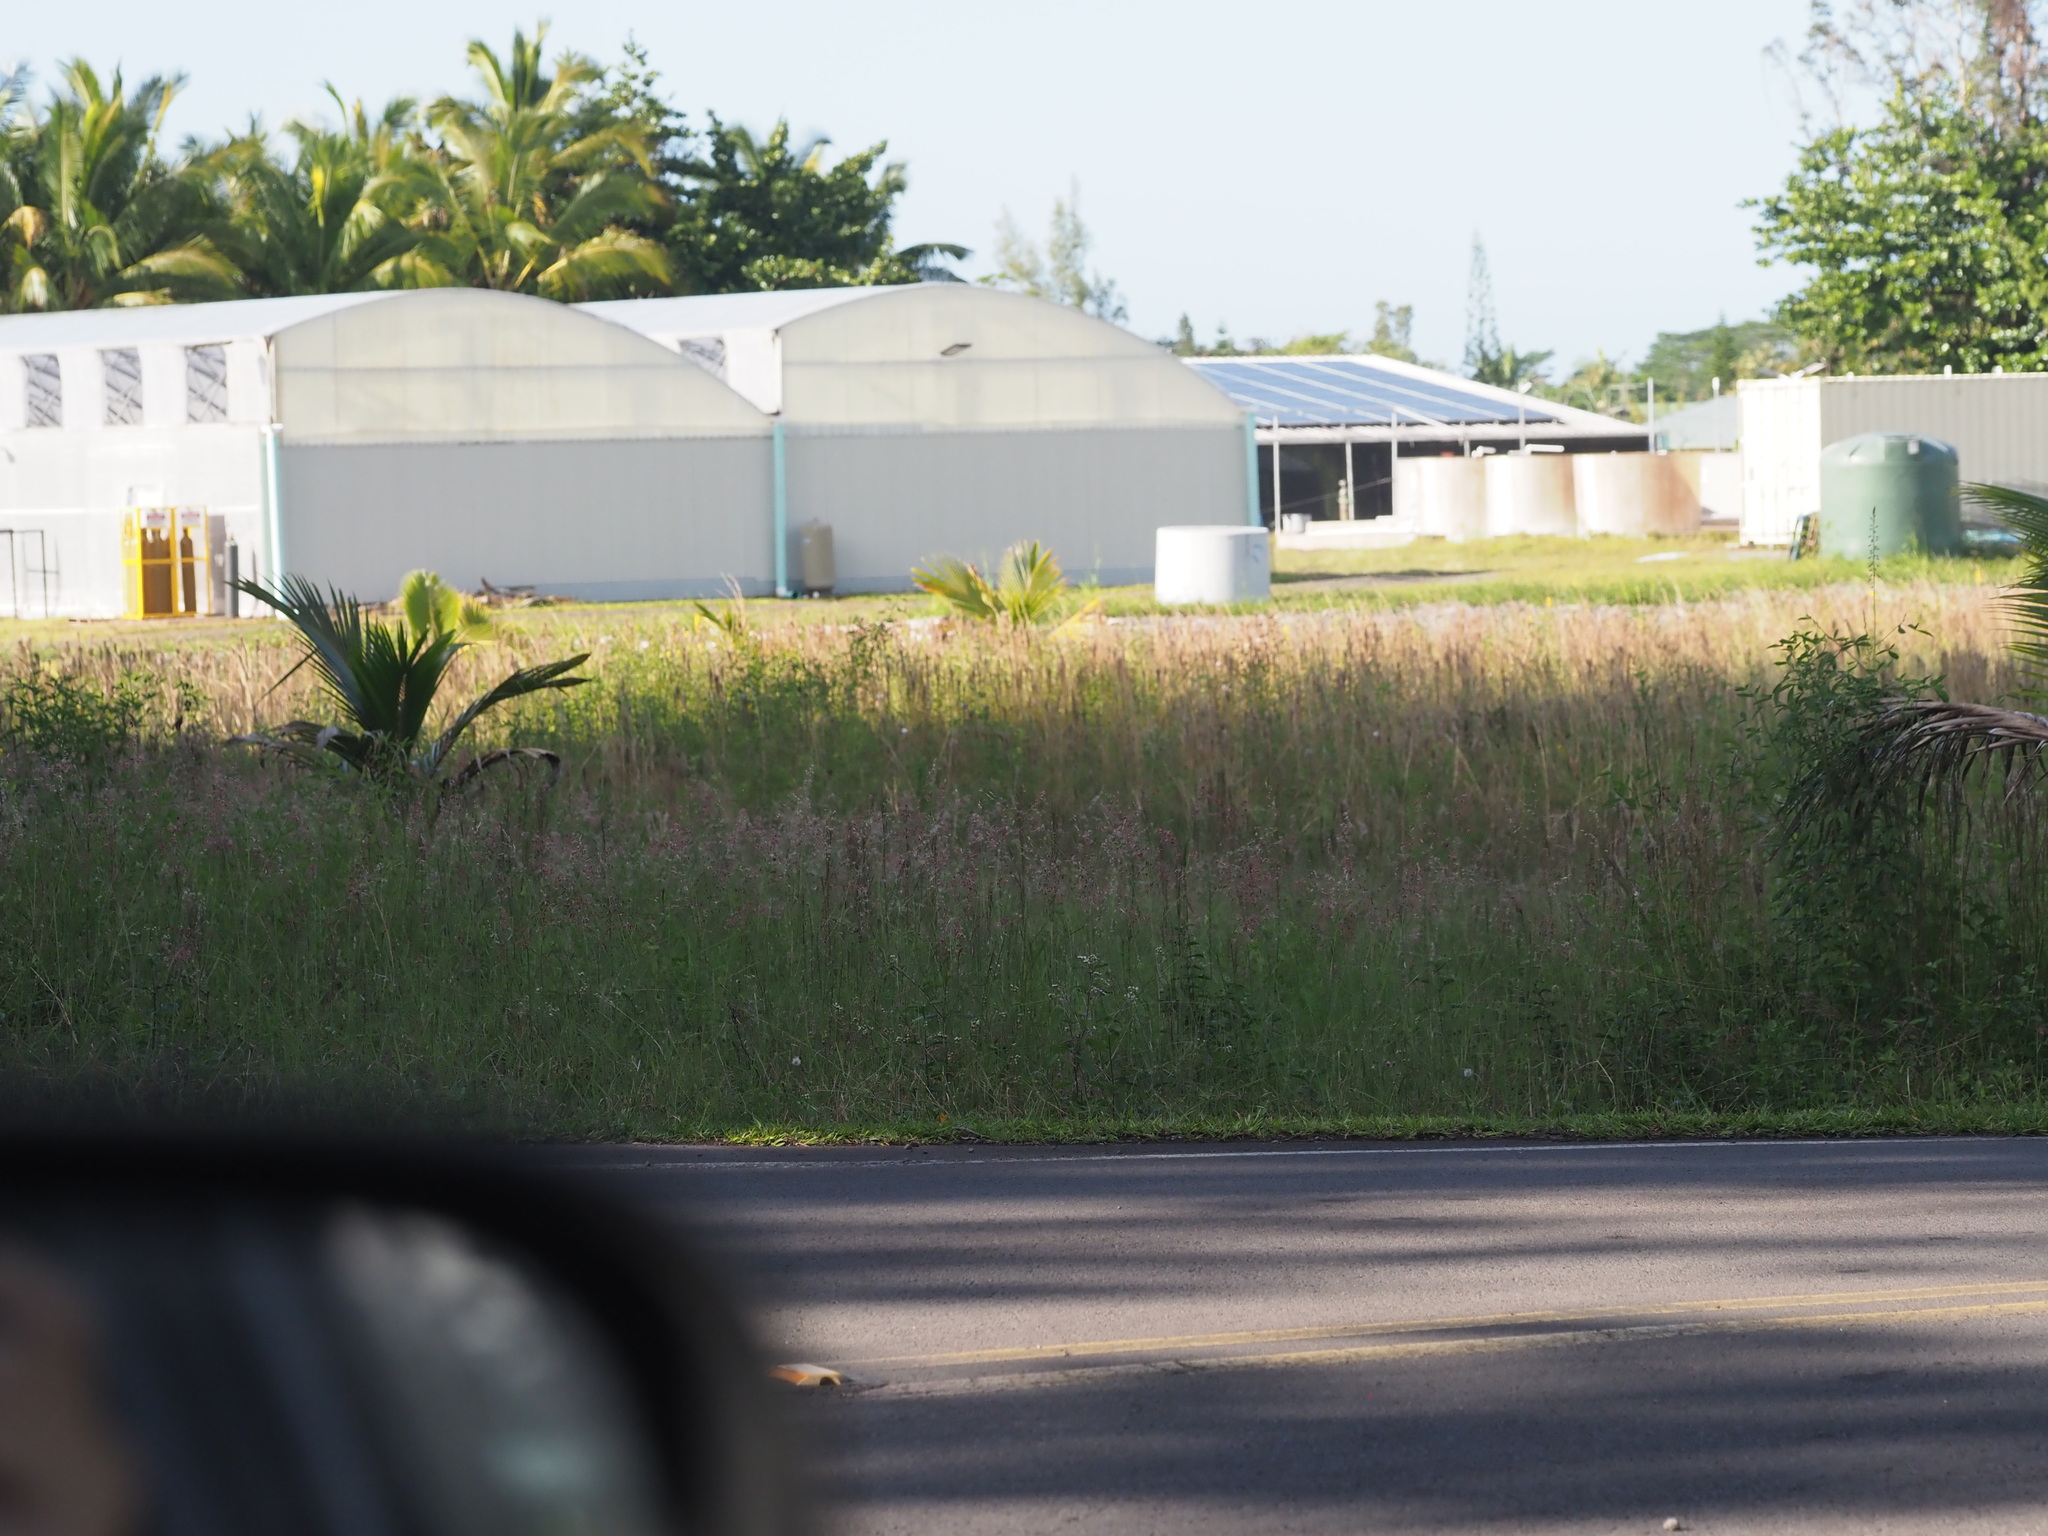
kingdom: Plantae
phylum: Tracheophyta
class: Liliopsida
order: Poales
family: Poaceae
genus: Melinis
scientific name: Melinis repens
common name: Rose natal grass
